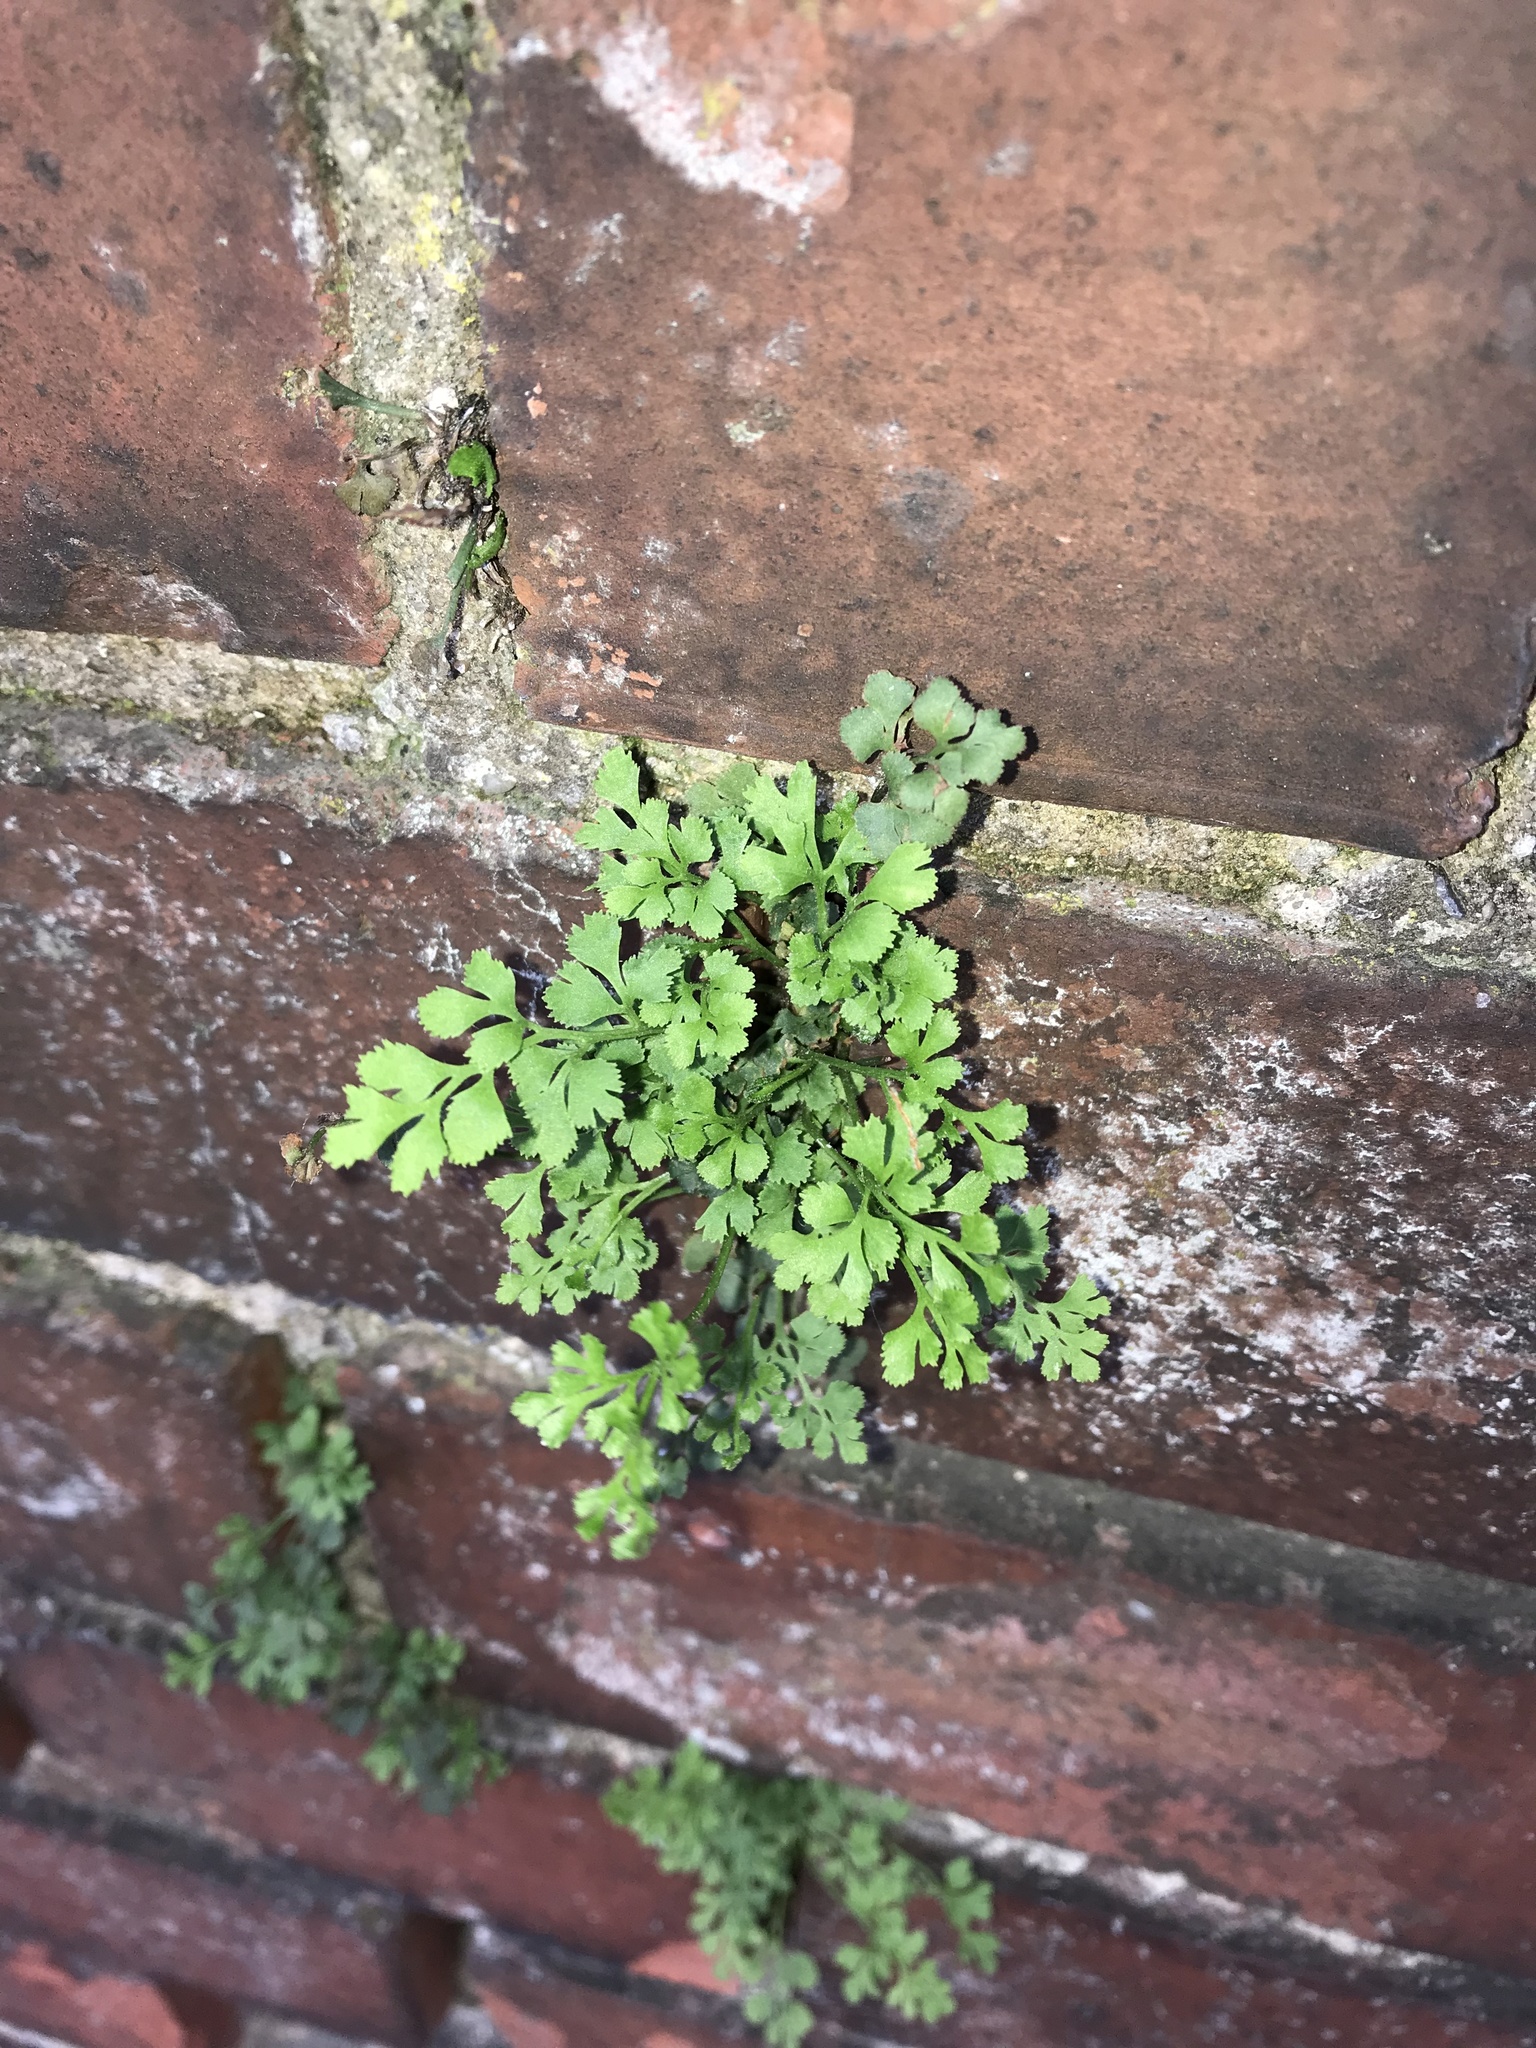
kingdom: Plantae
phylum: Tracheophyta
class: Polypodiopsida
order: Polypodiales
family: Aspleniaceae
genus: Asplenium
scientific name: Asplenium ruta-muraria
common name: Wall-rue
